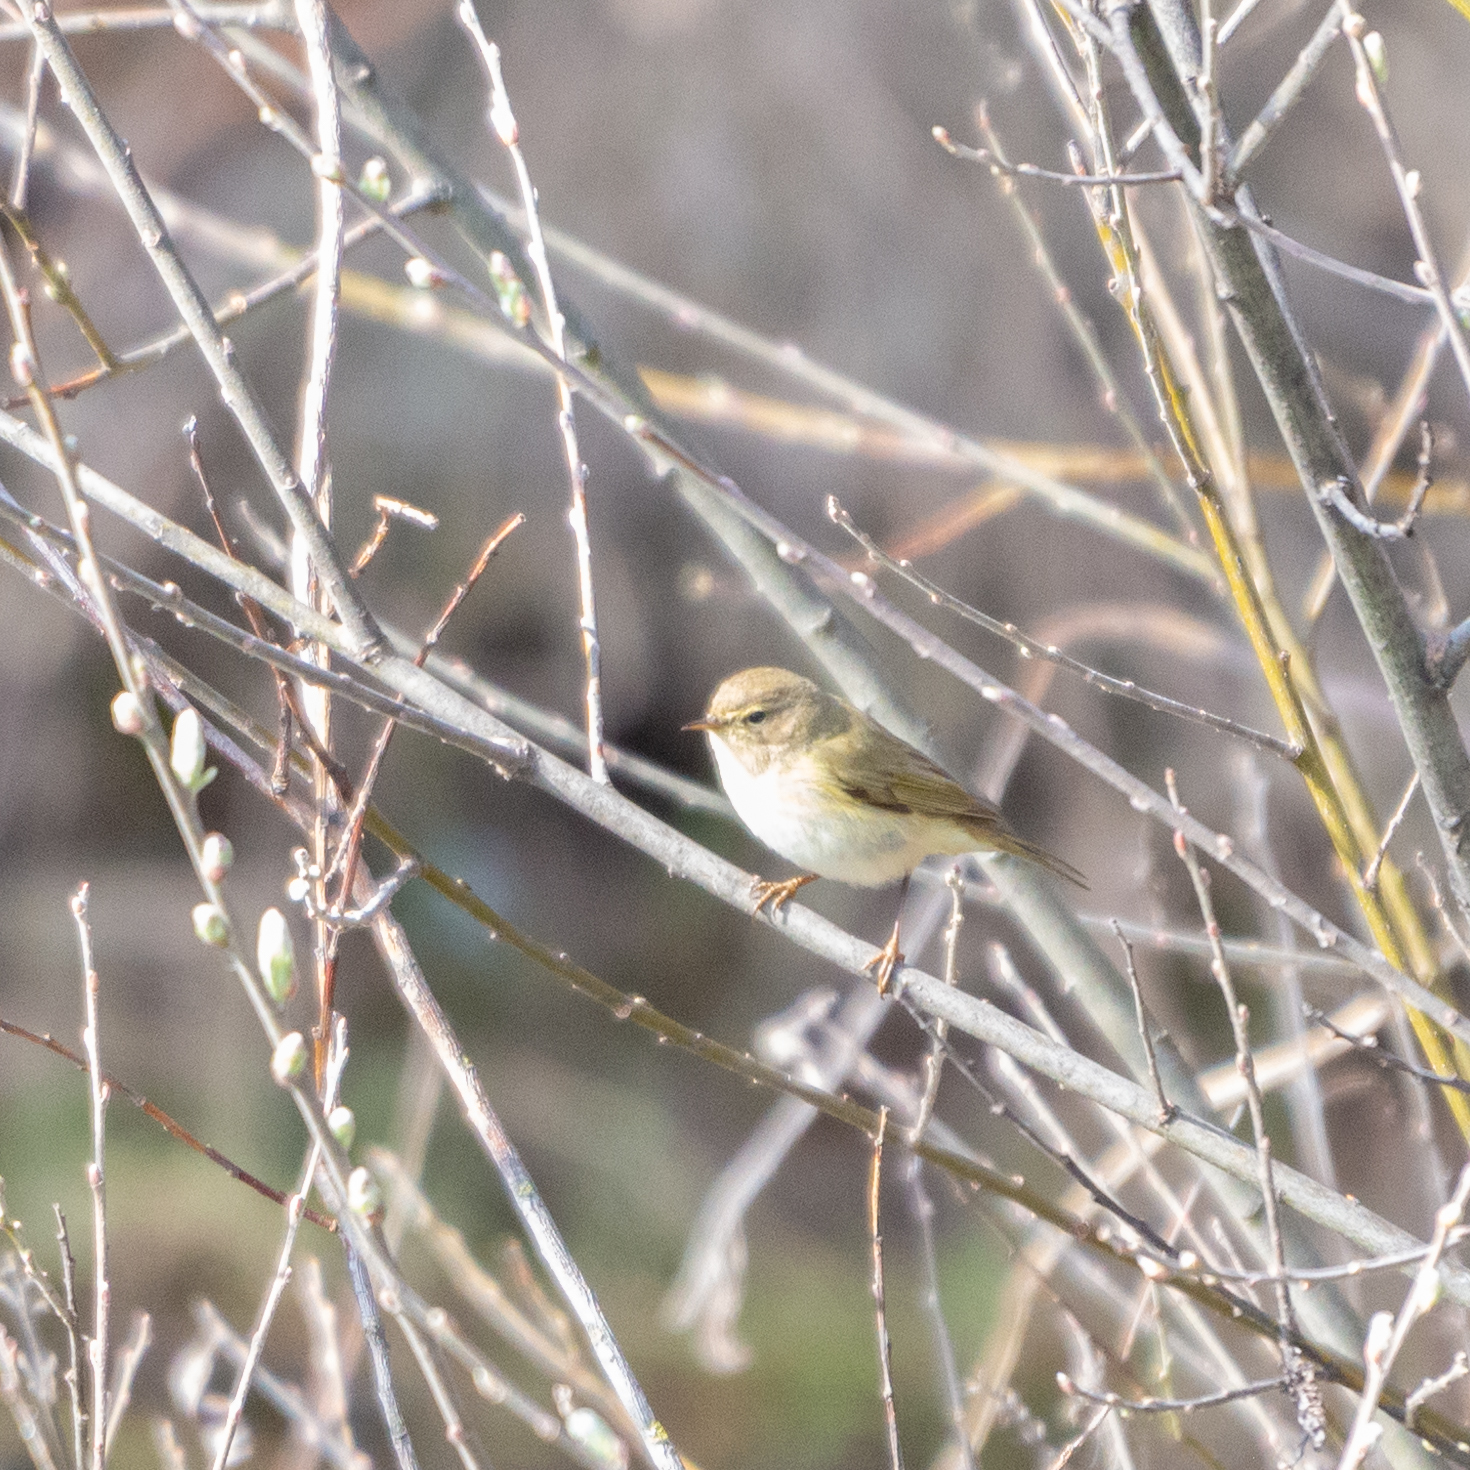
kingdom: Animalia
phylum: Chordata
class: Aves
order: Passeriformes
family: Phylloscopidae
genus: Phylloscopus
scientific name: Phylloscopus collybita
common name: Common chiffchaff
